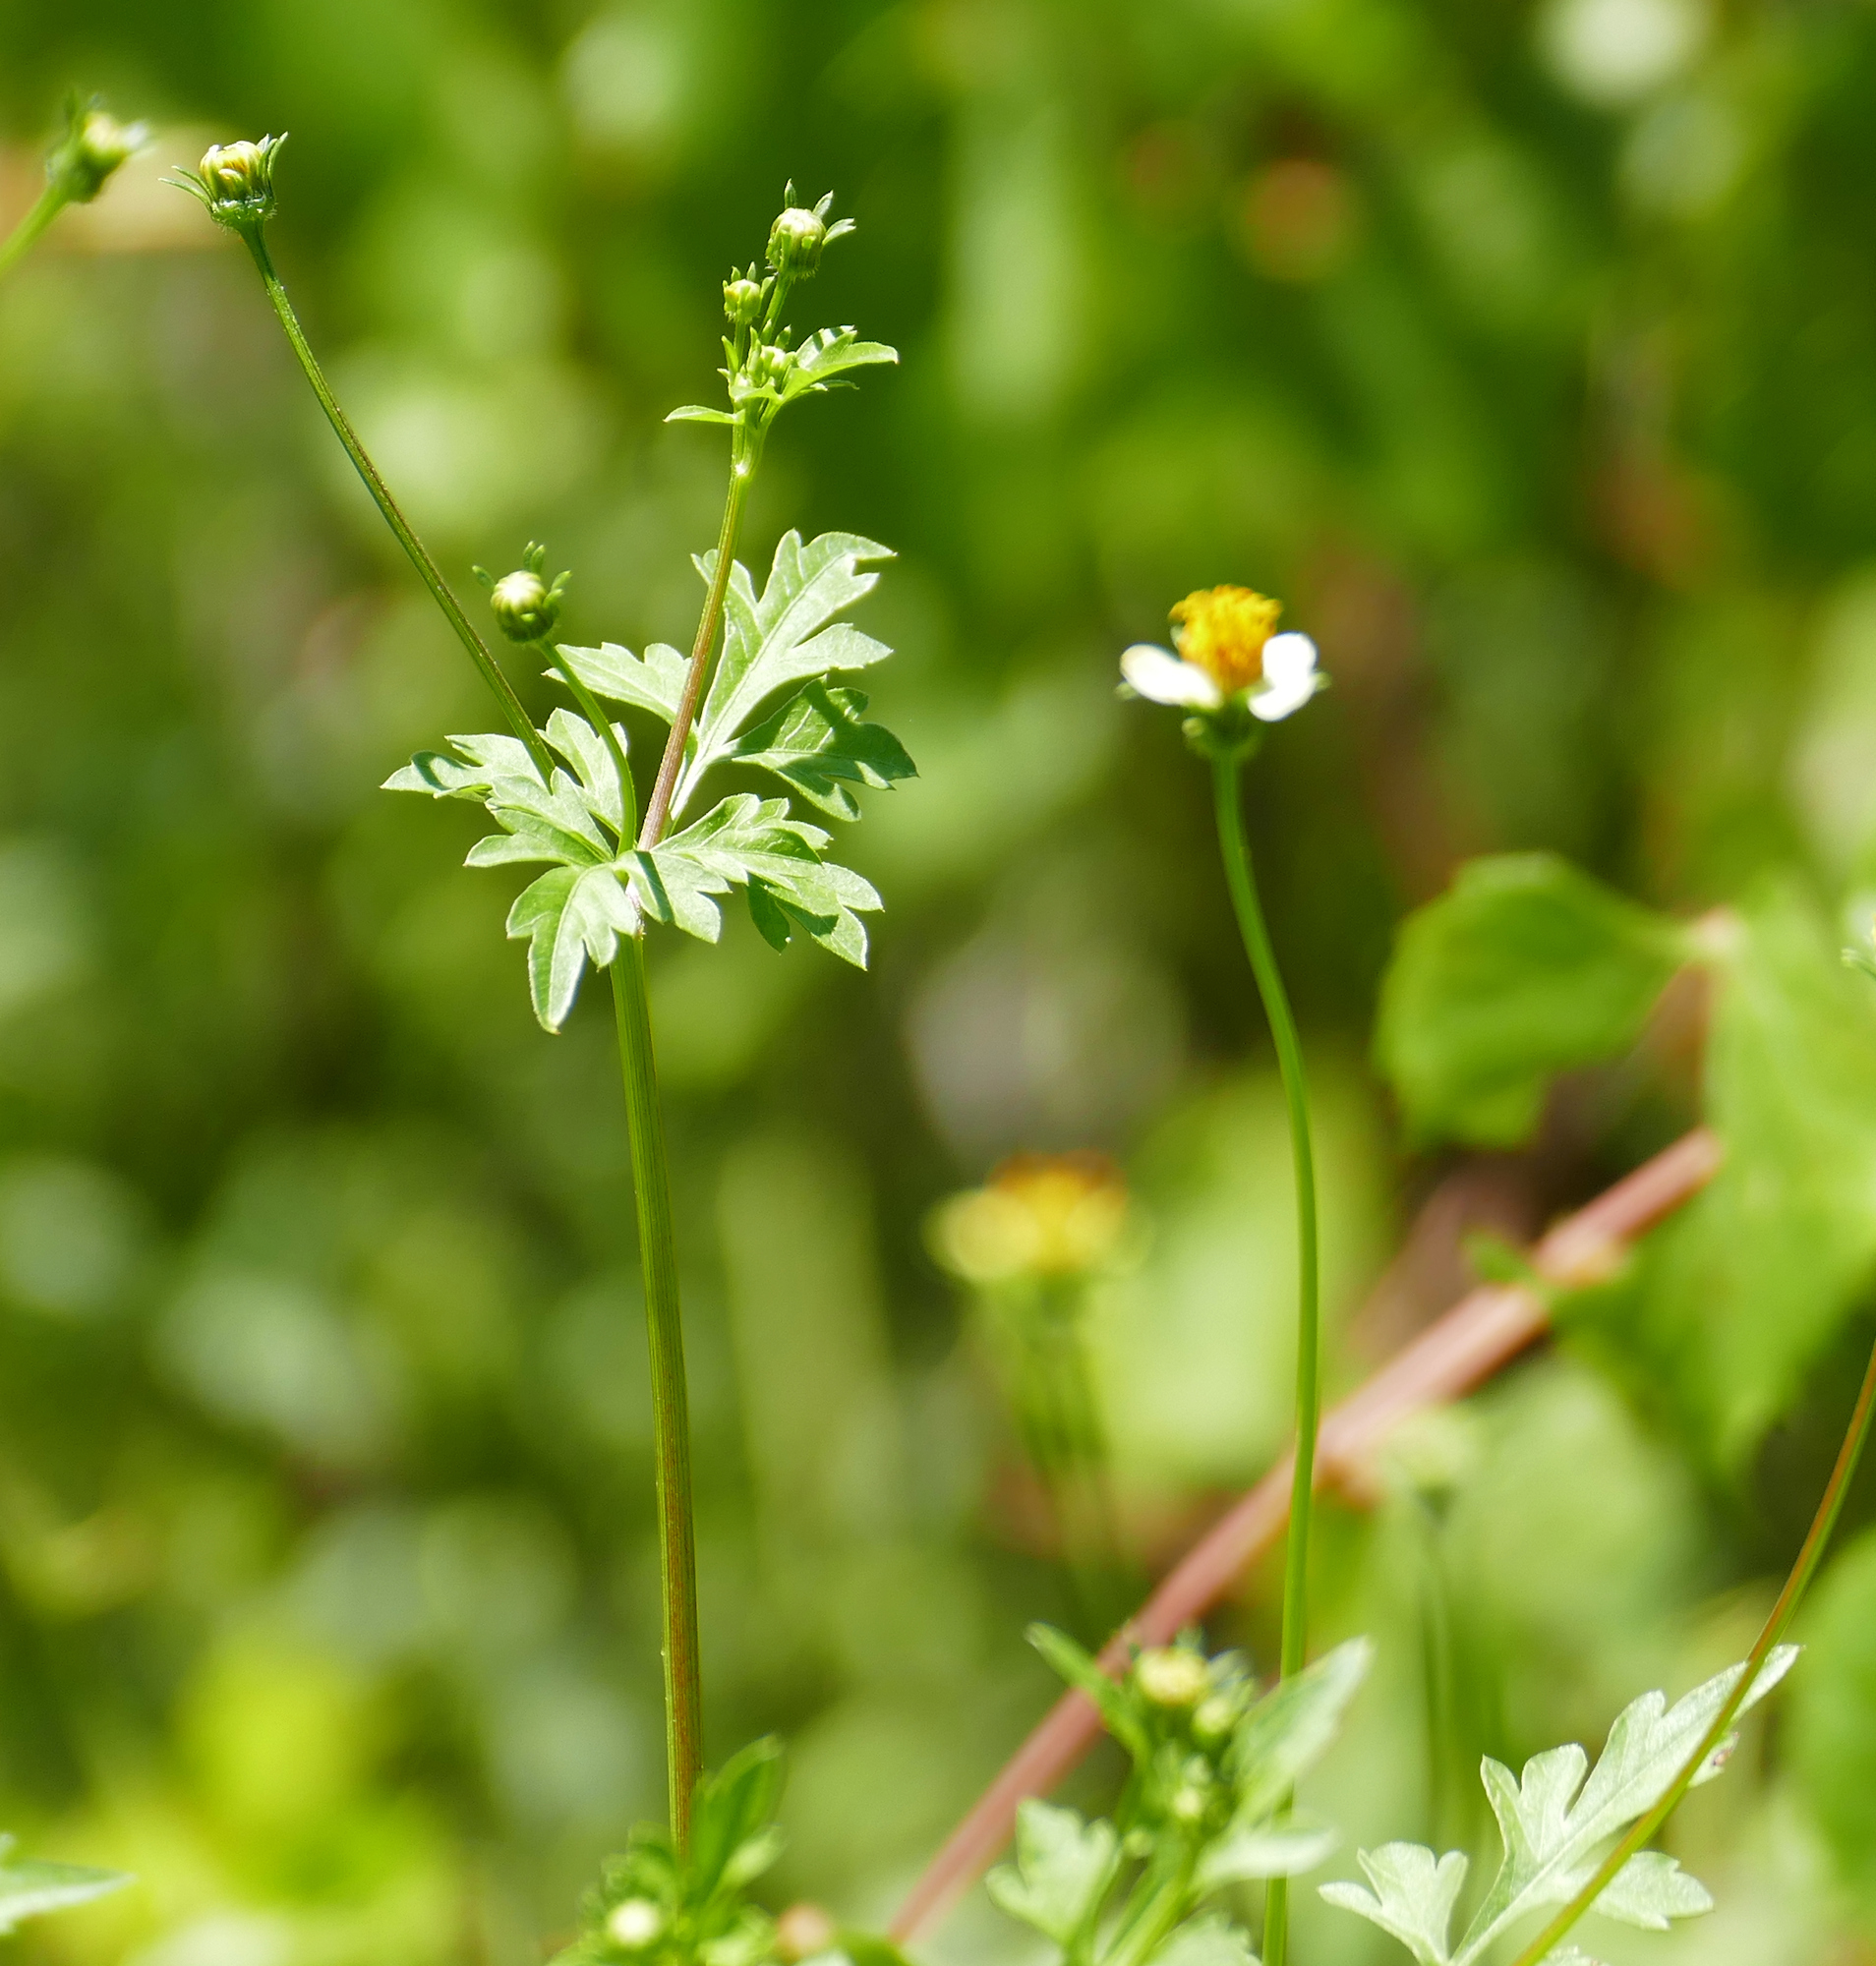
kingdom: Plantae
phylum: Tracheophyta
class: Magnoliopsida
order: Asterales
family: Asteraceae
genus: Bidens
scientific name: Bidens bigelovii
